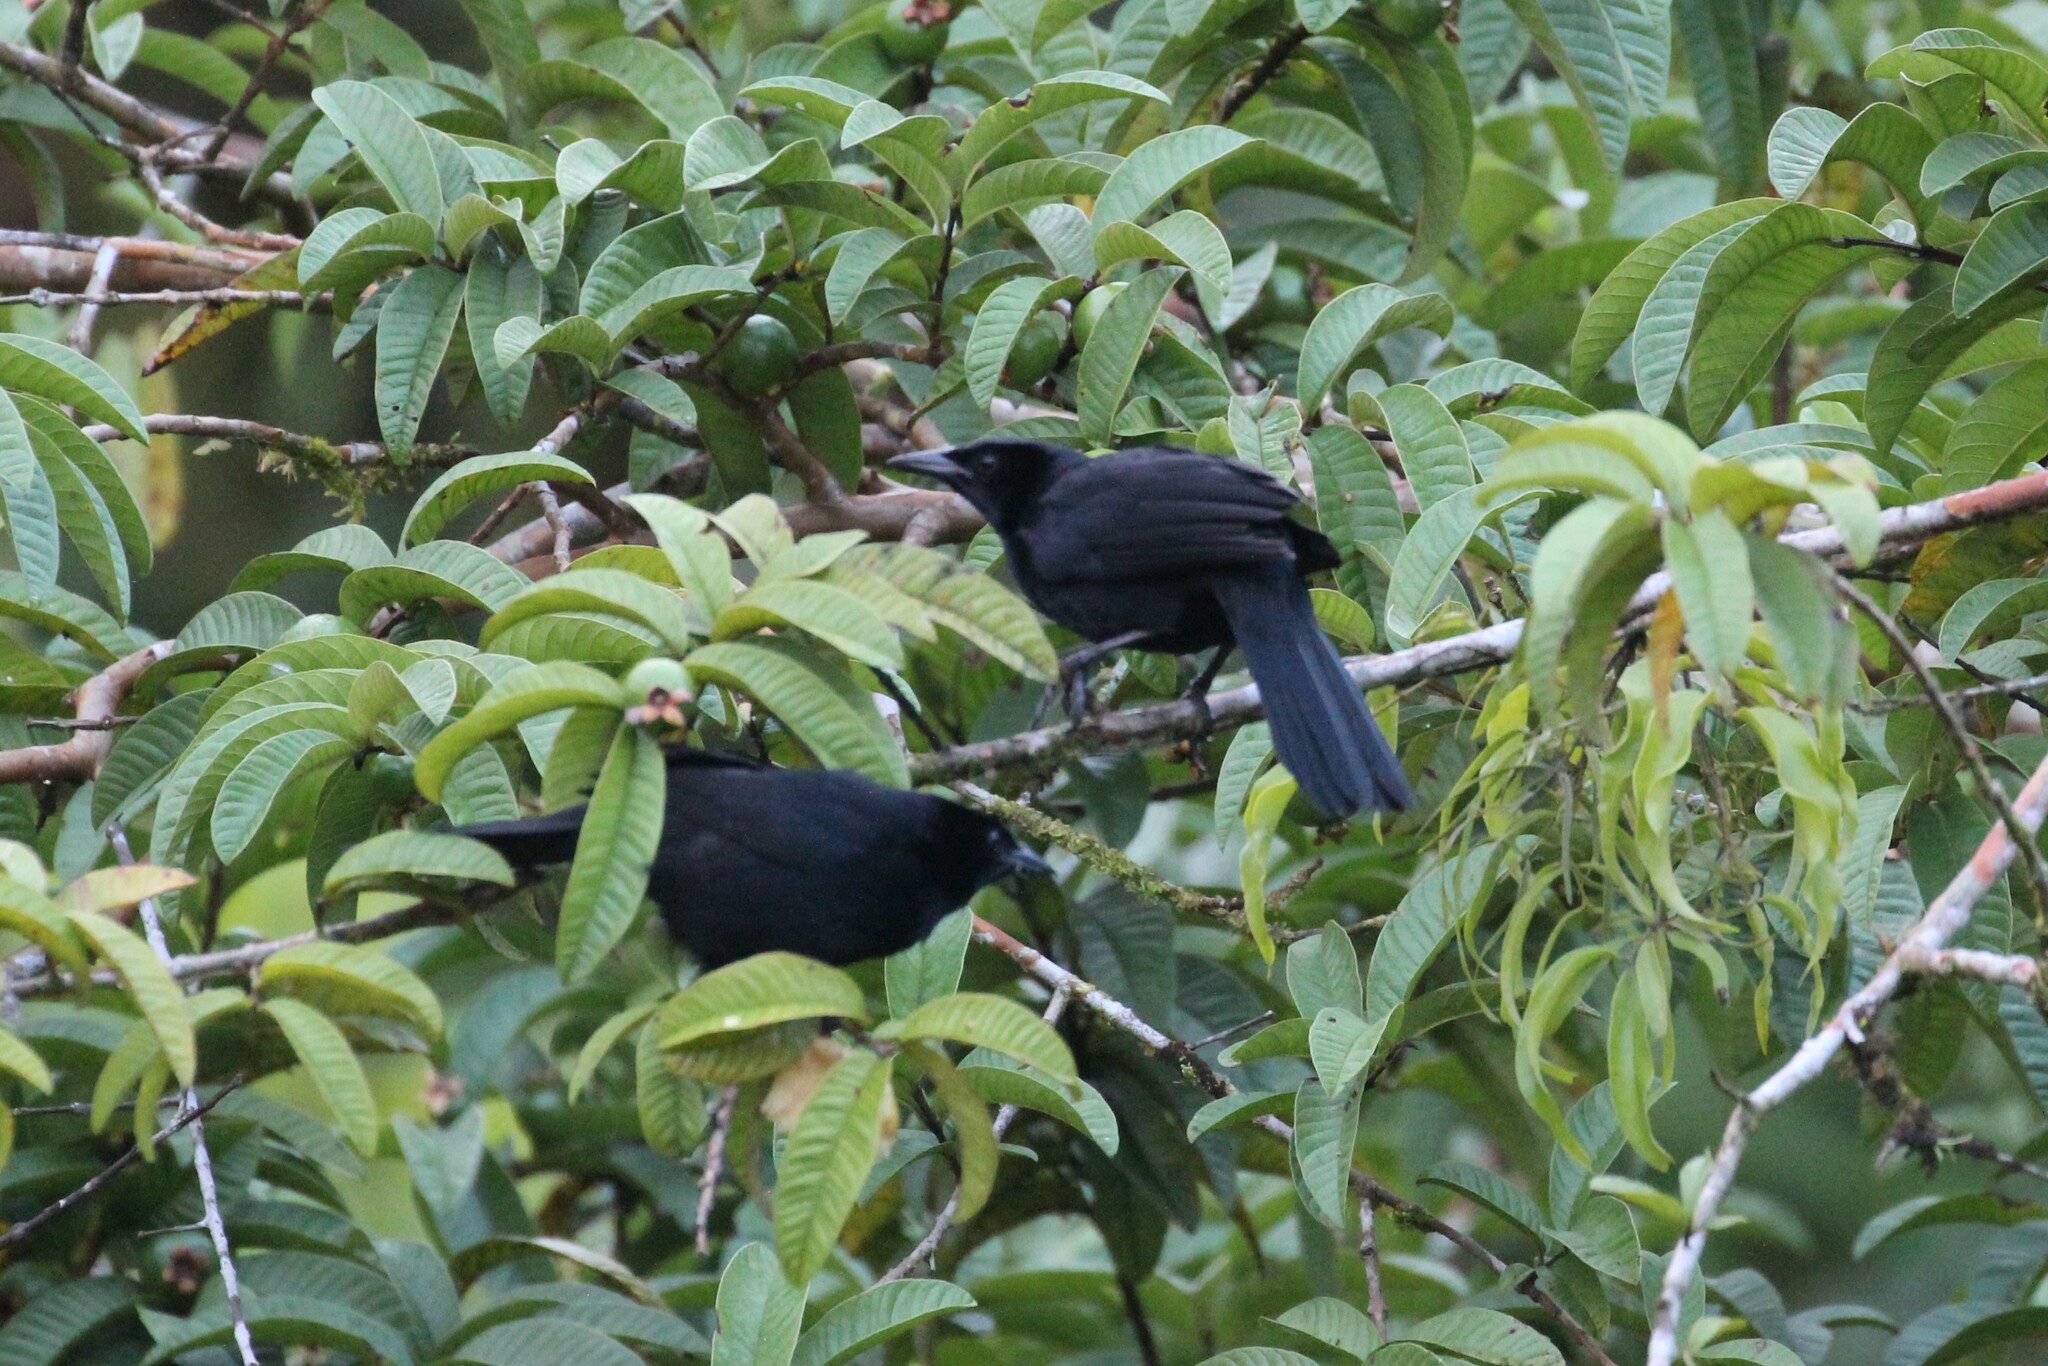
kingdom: Animalia
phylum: Chordata
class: Aves
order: Passeriformes
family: Icteridae
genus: Dives
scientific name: Dives dives
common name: Melodious blackbird
